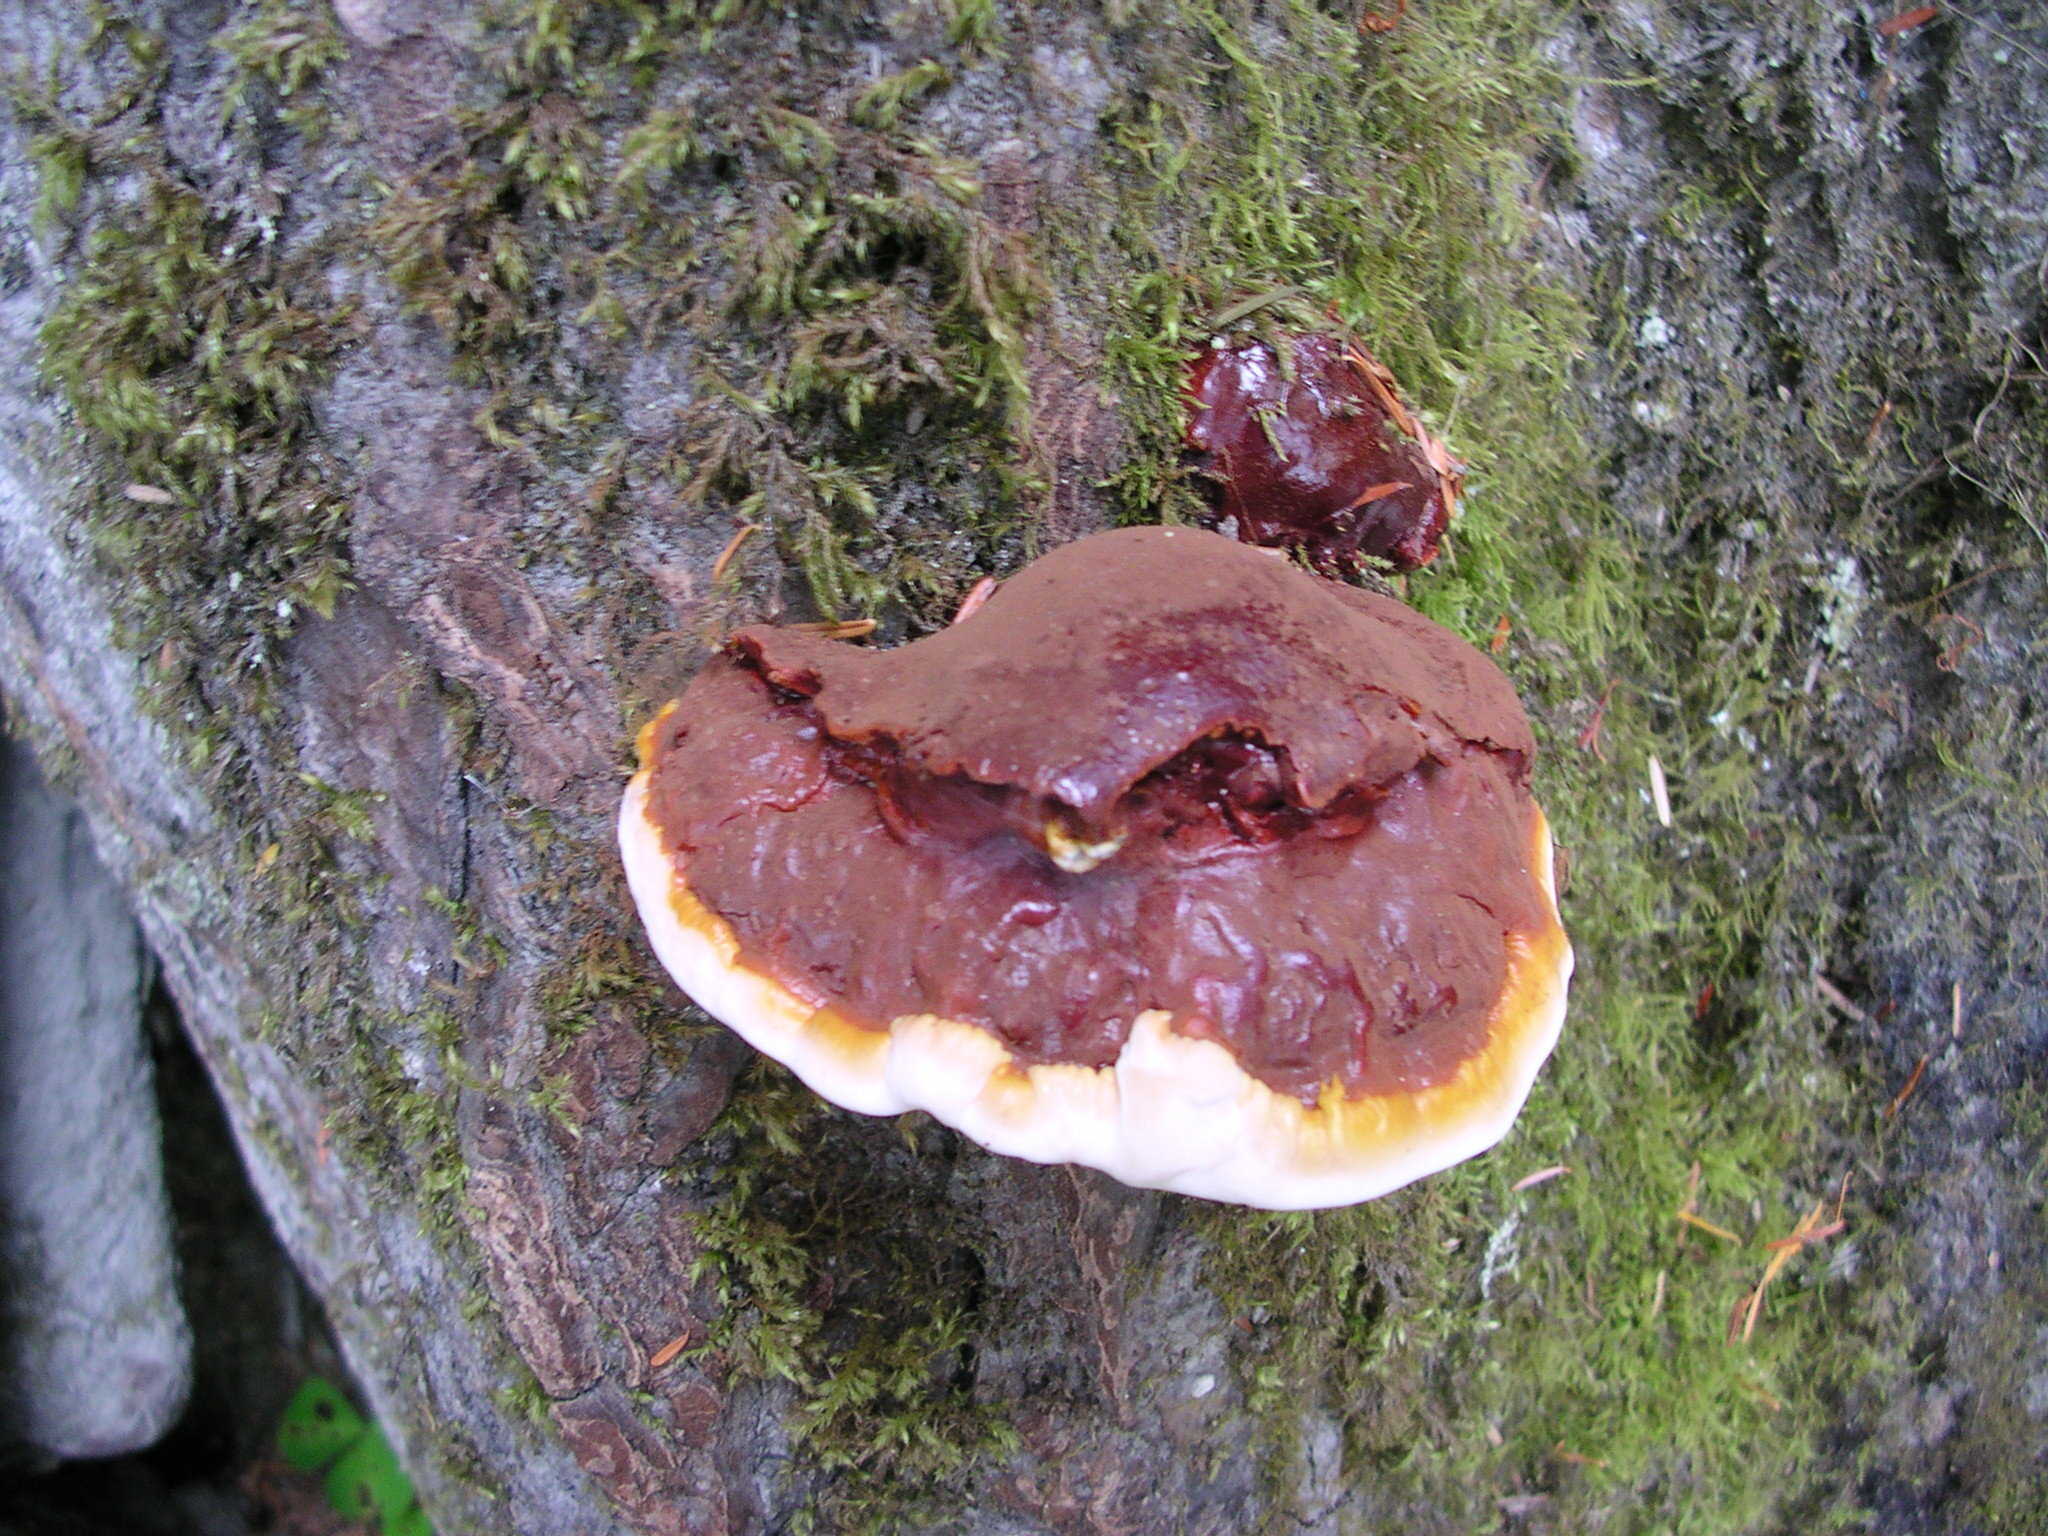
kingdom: Fungi
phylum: Basidiomycota
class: Agaricomycetes
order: Polyporales
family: Polyporaceae
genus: Ganoderma
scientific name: Ganoderma oregonense
